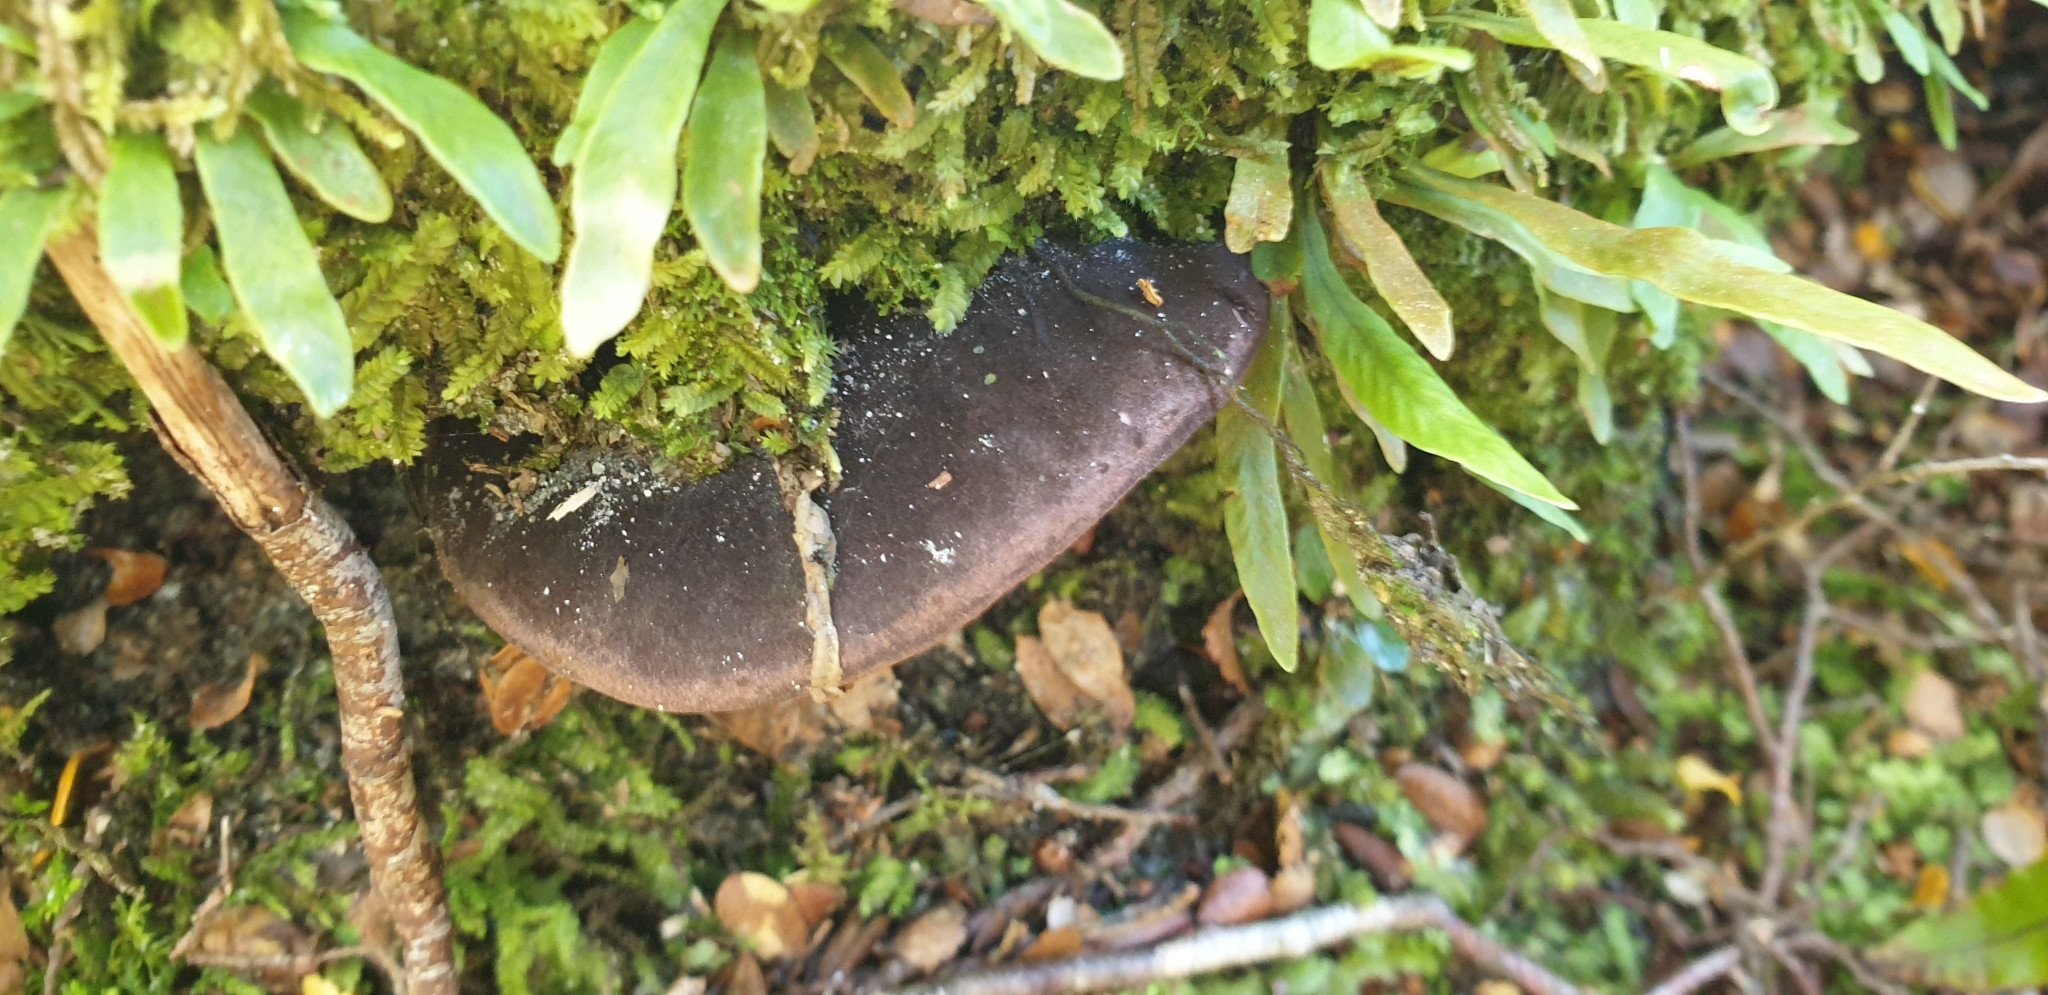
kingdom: Fungi
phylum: Basidiomycota
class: Agaricomycetes
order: Boletales
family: Boletaceae
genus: Porphyrellus
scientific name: Porphyrellus formosus
